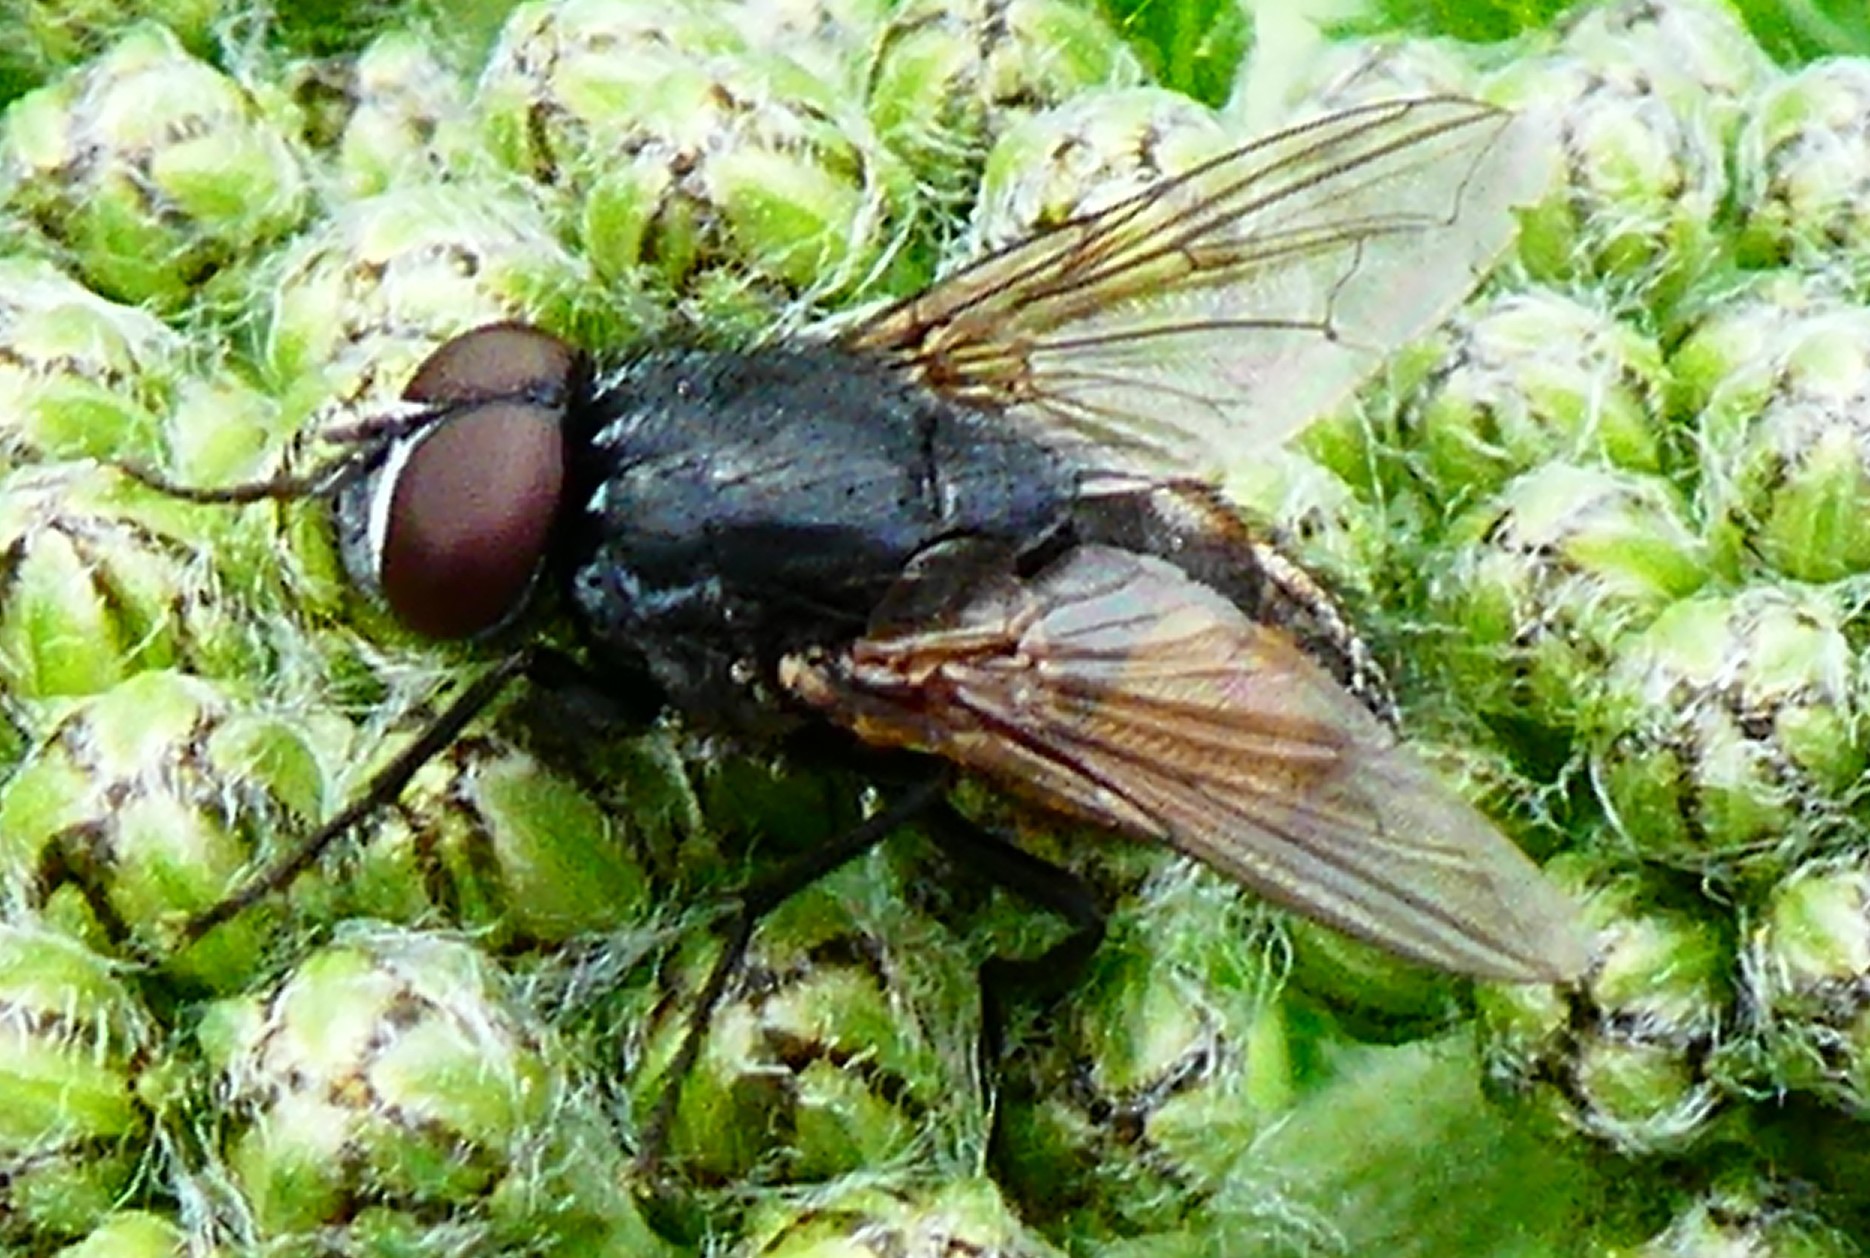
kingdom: Animalia
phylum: Arthropoda
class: Insecta
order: Diptera
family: Muscidae
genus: Musca
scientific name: Musca autumnalis
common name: Face fly
